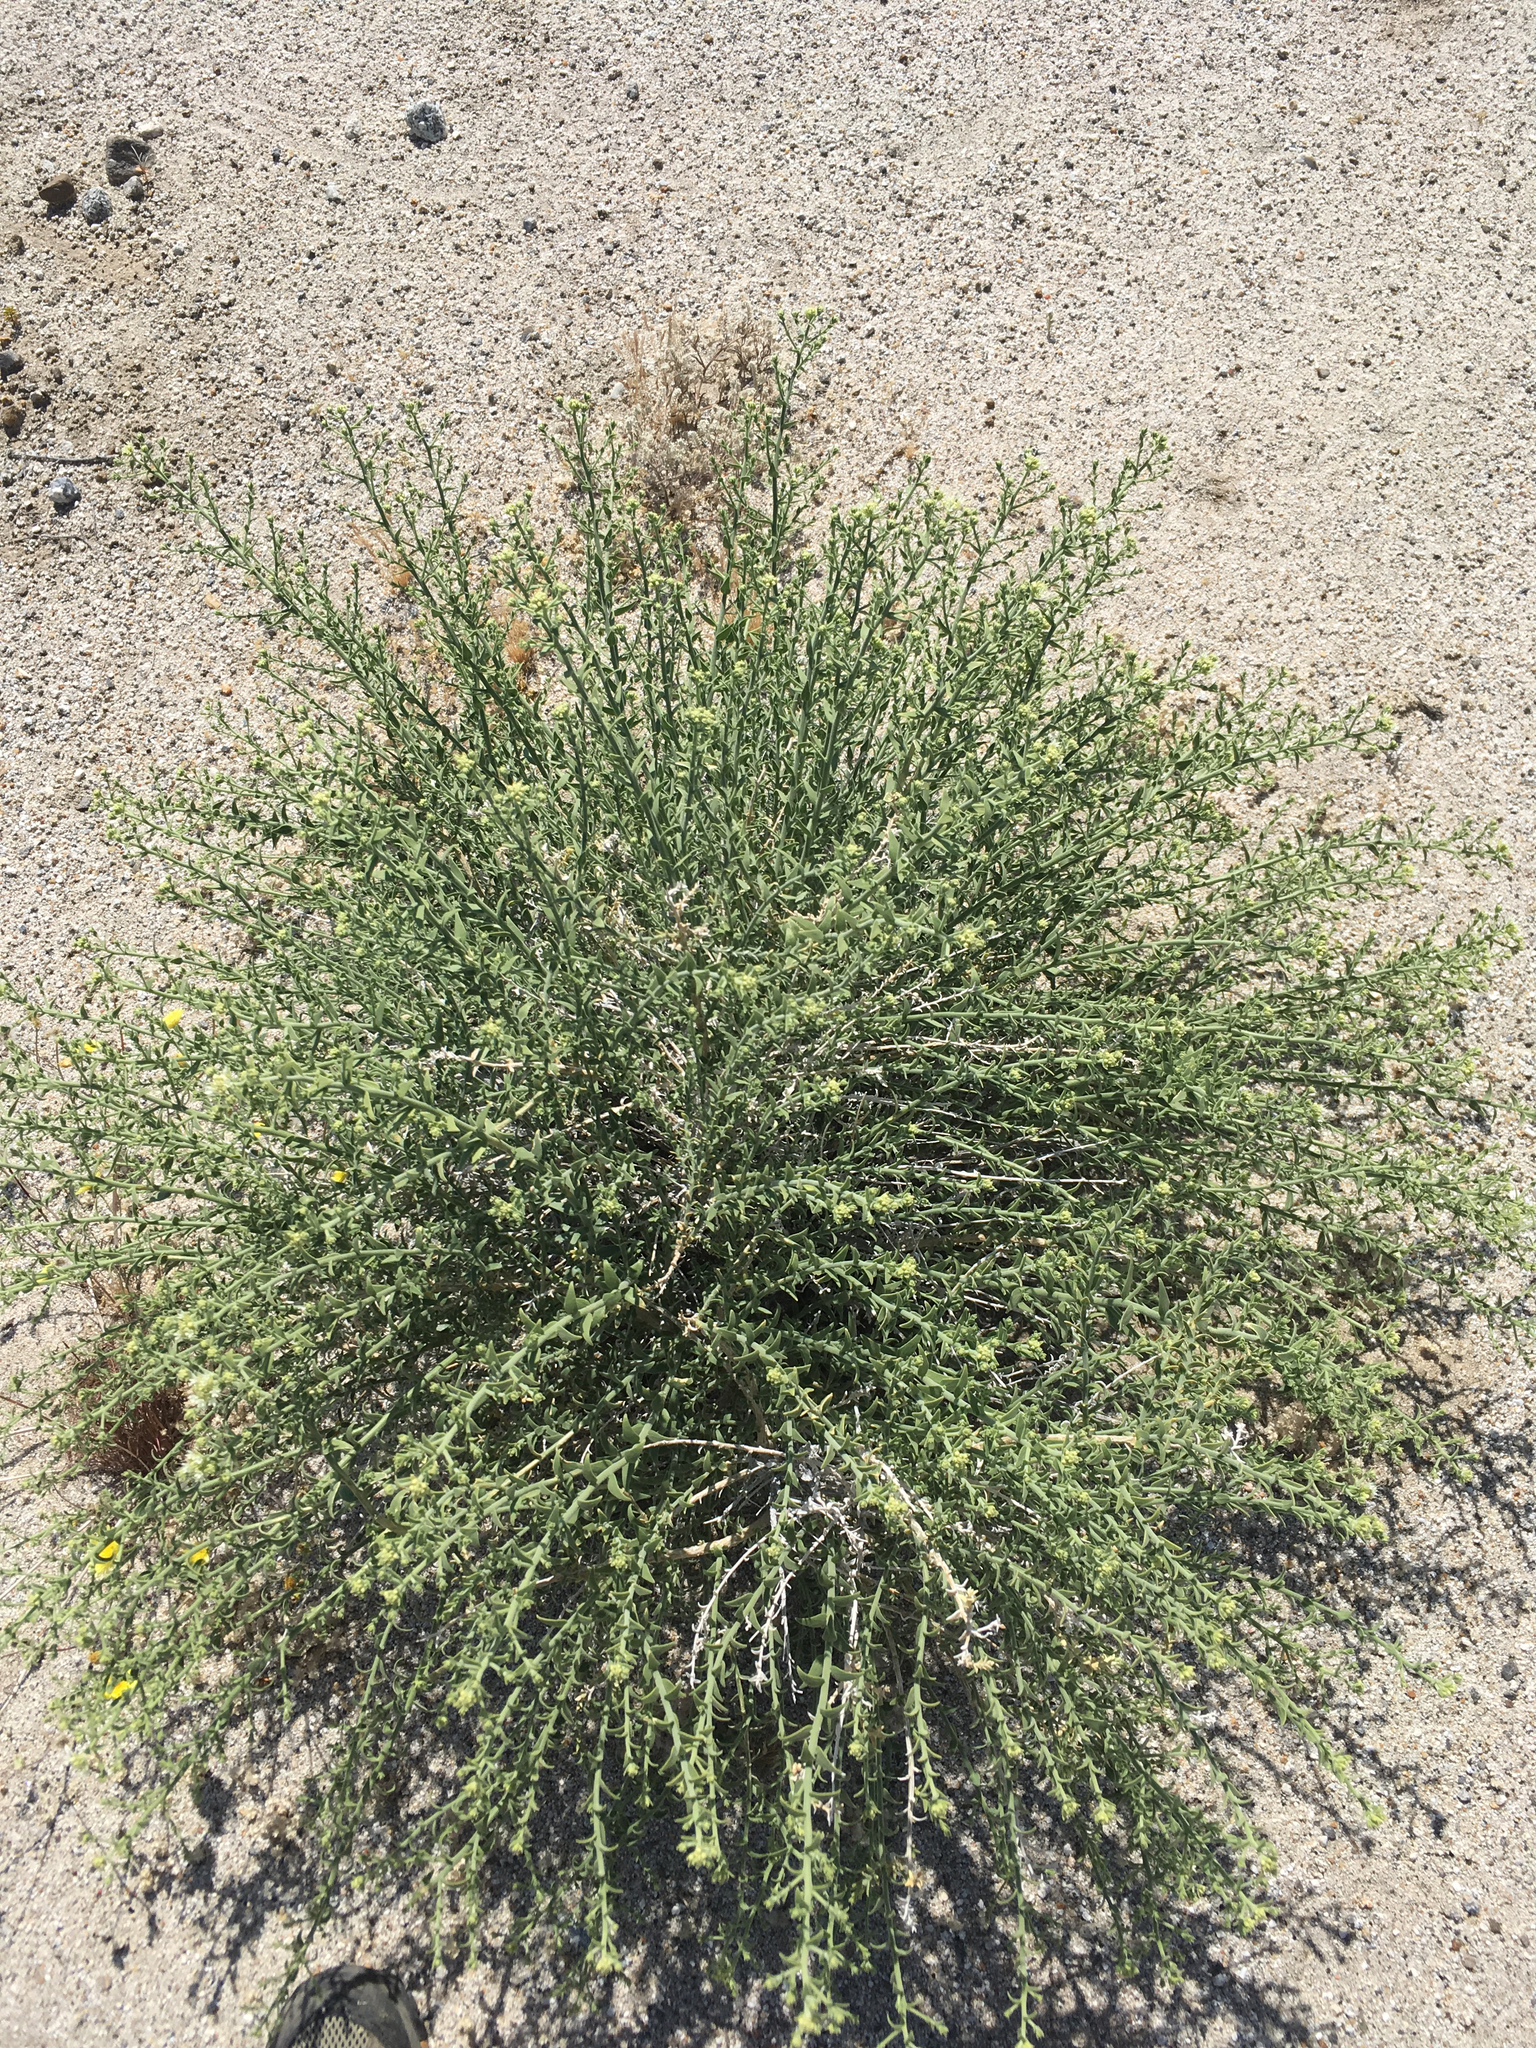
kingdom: Plantae
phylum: Tracheophyta
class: Magnoliopsida
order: Cornales
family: Loasaceae
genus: Petalonyx
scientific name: Petalonyx thurberi
